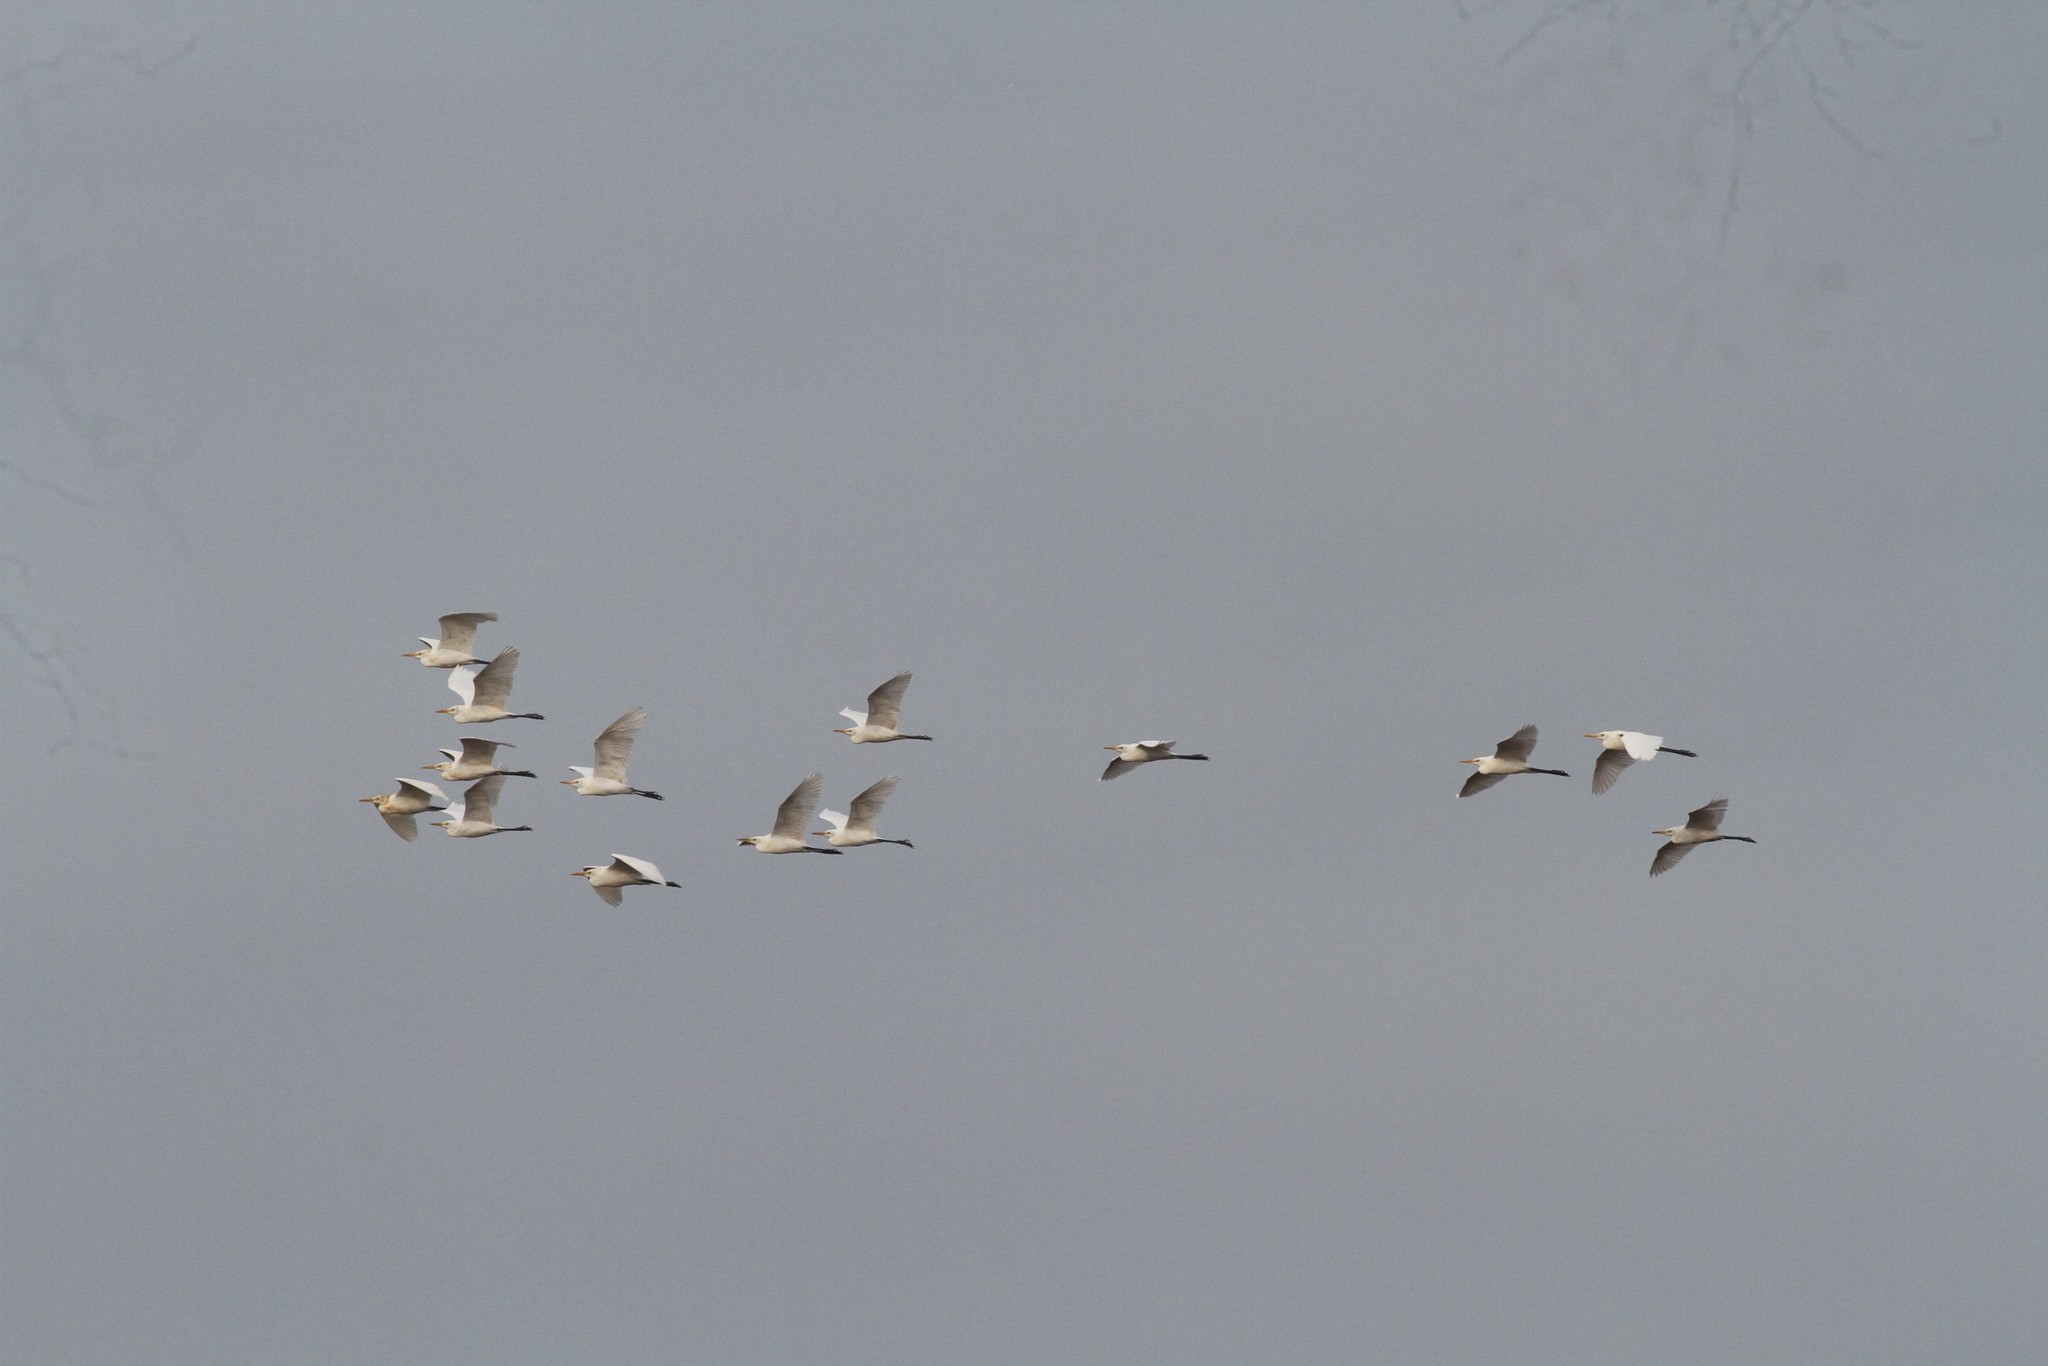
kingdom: Animalia
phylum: Chordata
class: Aves
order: Pelecaniformes
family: Ardeidae
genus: Bubulcus
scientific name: Bubulcus coromandus
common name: Eastern cattle egret
